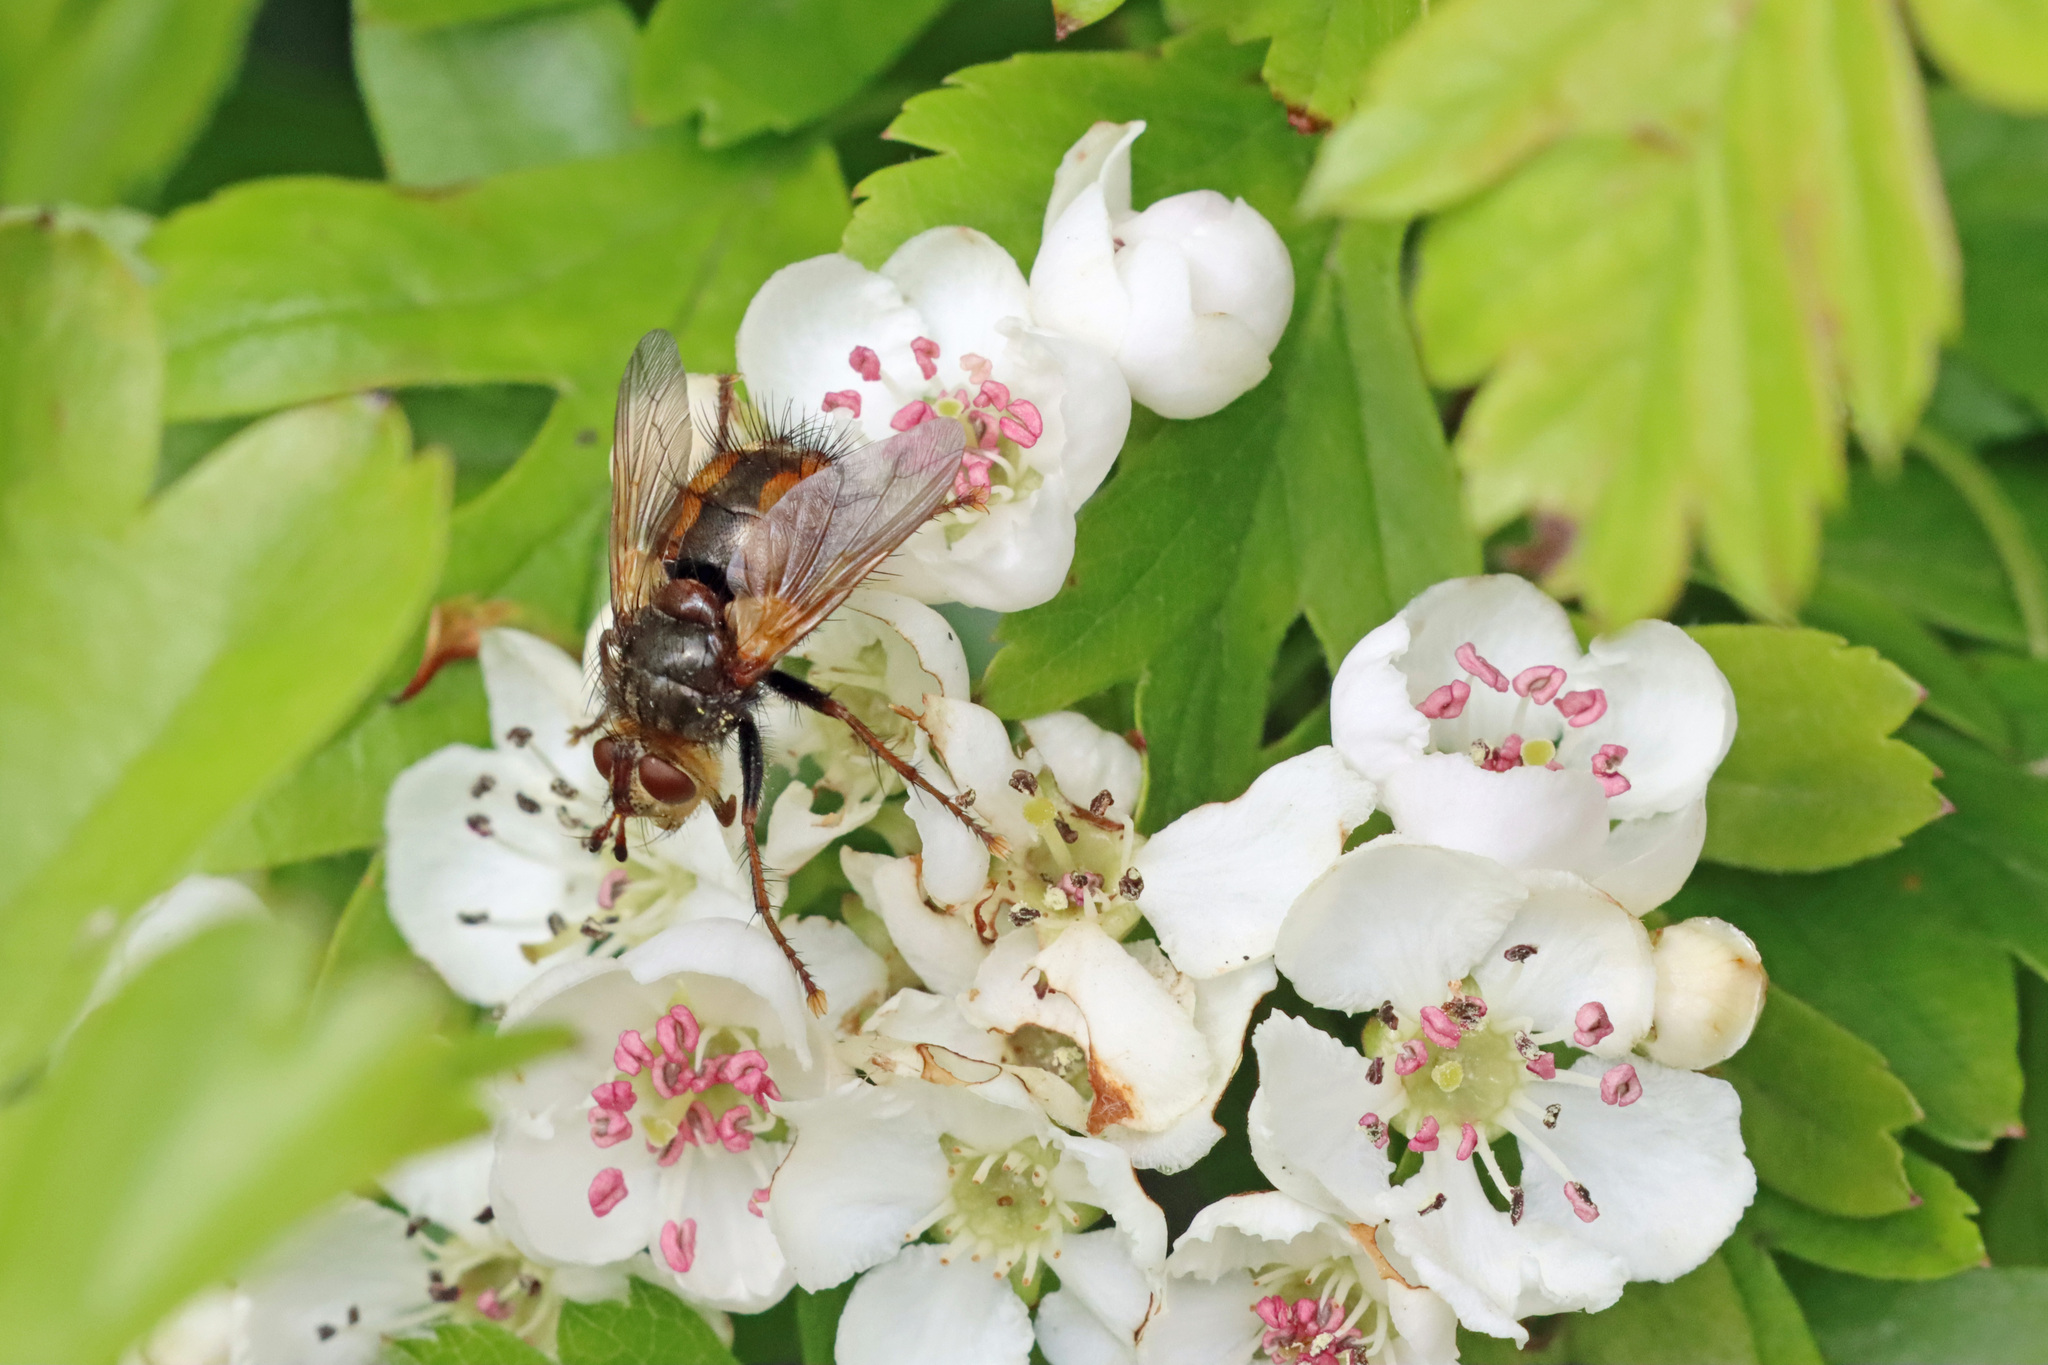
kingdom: Animalia
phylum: Arthropoda
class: Insecta
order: Diptera
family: Tachinidae
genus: Tachina
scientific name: Tachina fera
